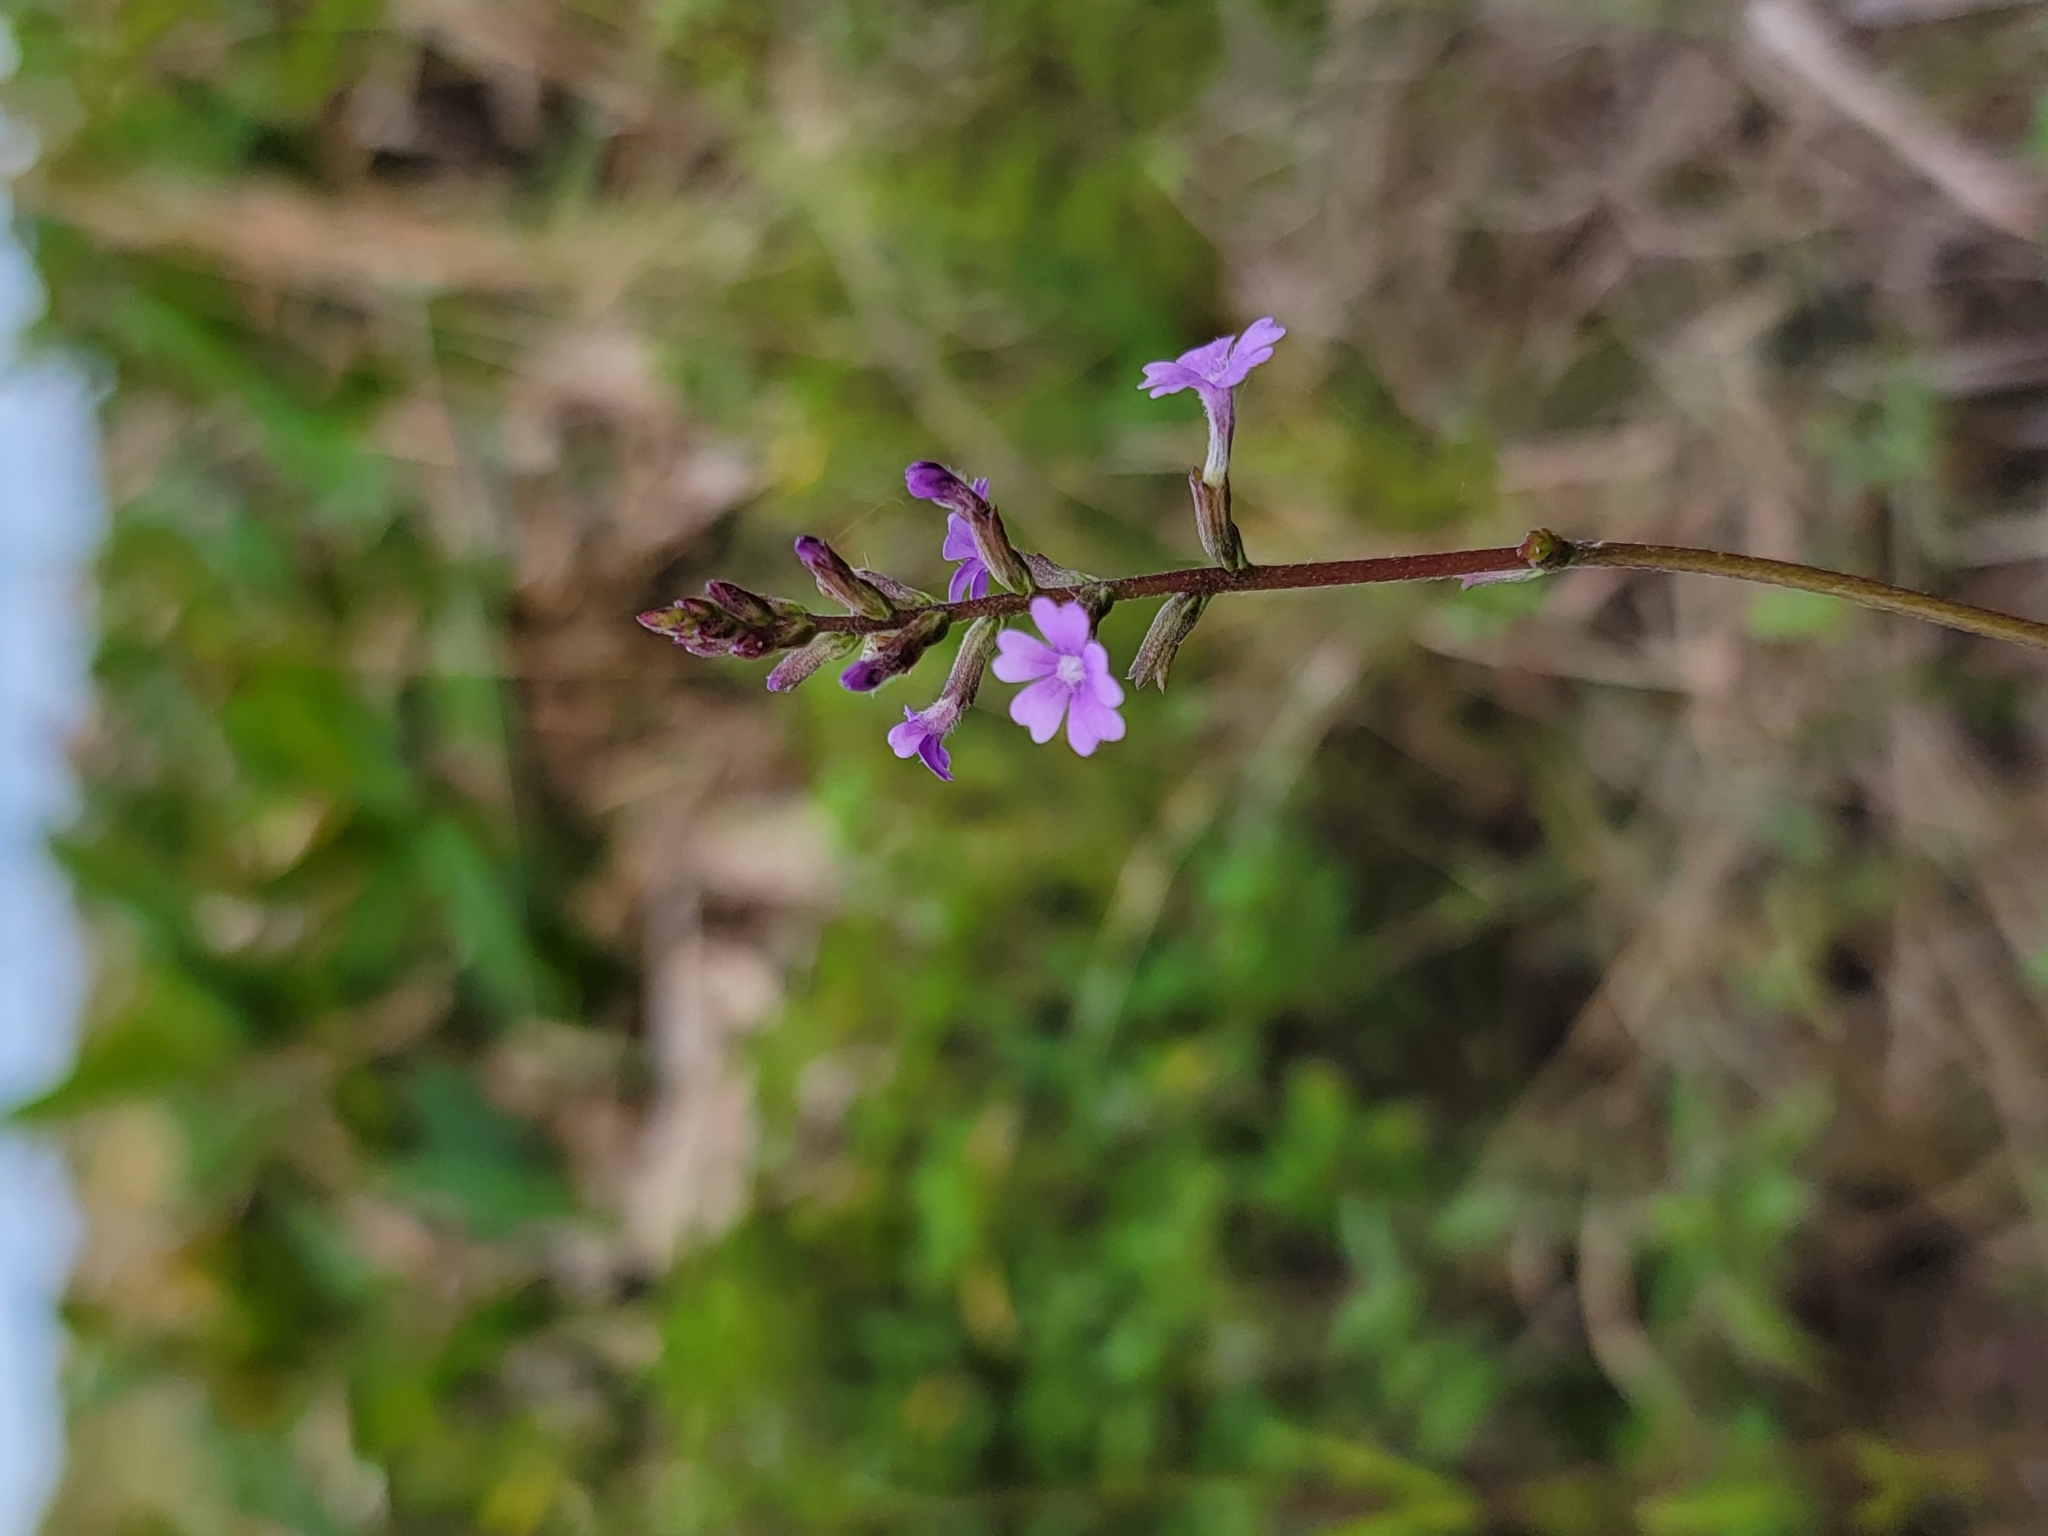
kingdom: Plantae
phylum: Tracheophyta
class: Magnoliopsida
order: Lamiales
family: Orobanchaceae
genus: Buchnera
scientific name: Buchnera floridana
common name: Florida bluehearts
